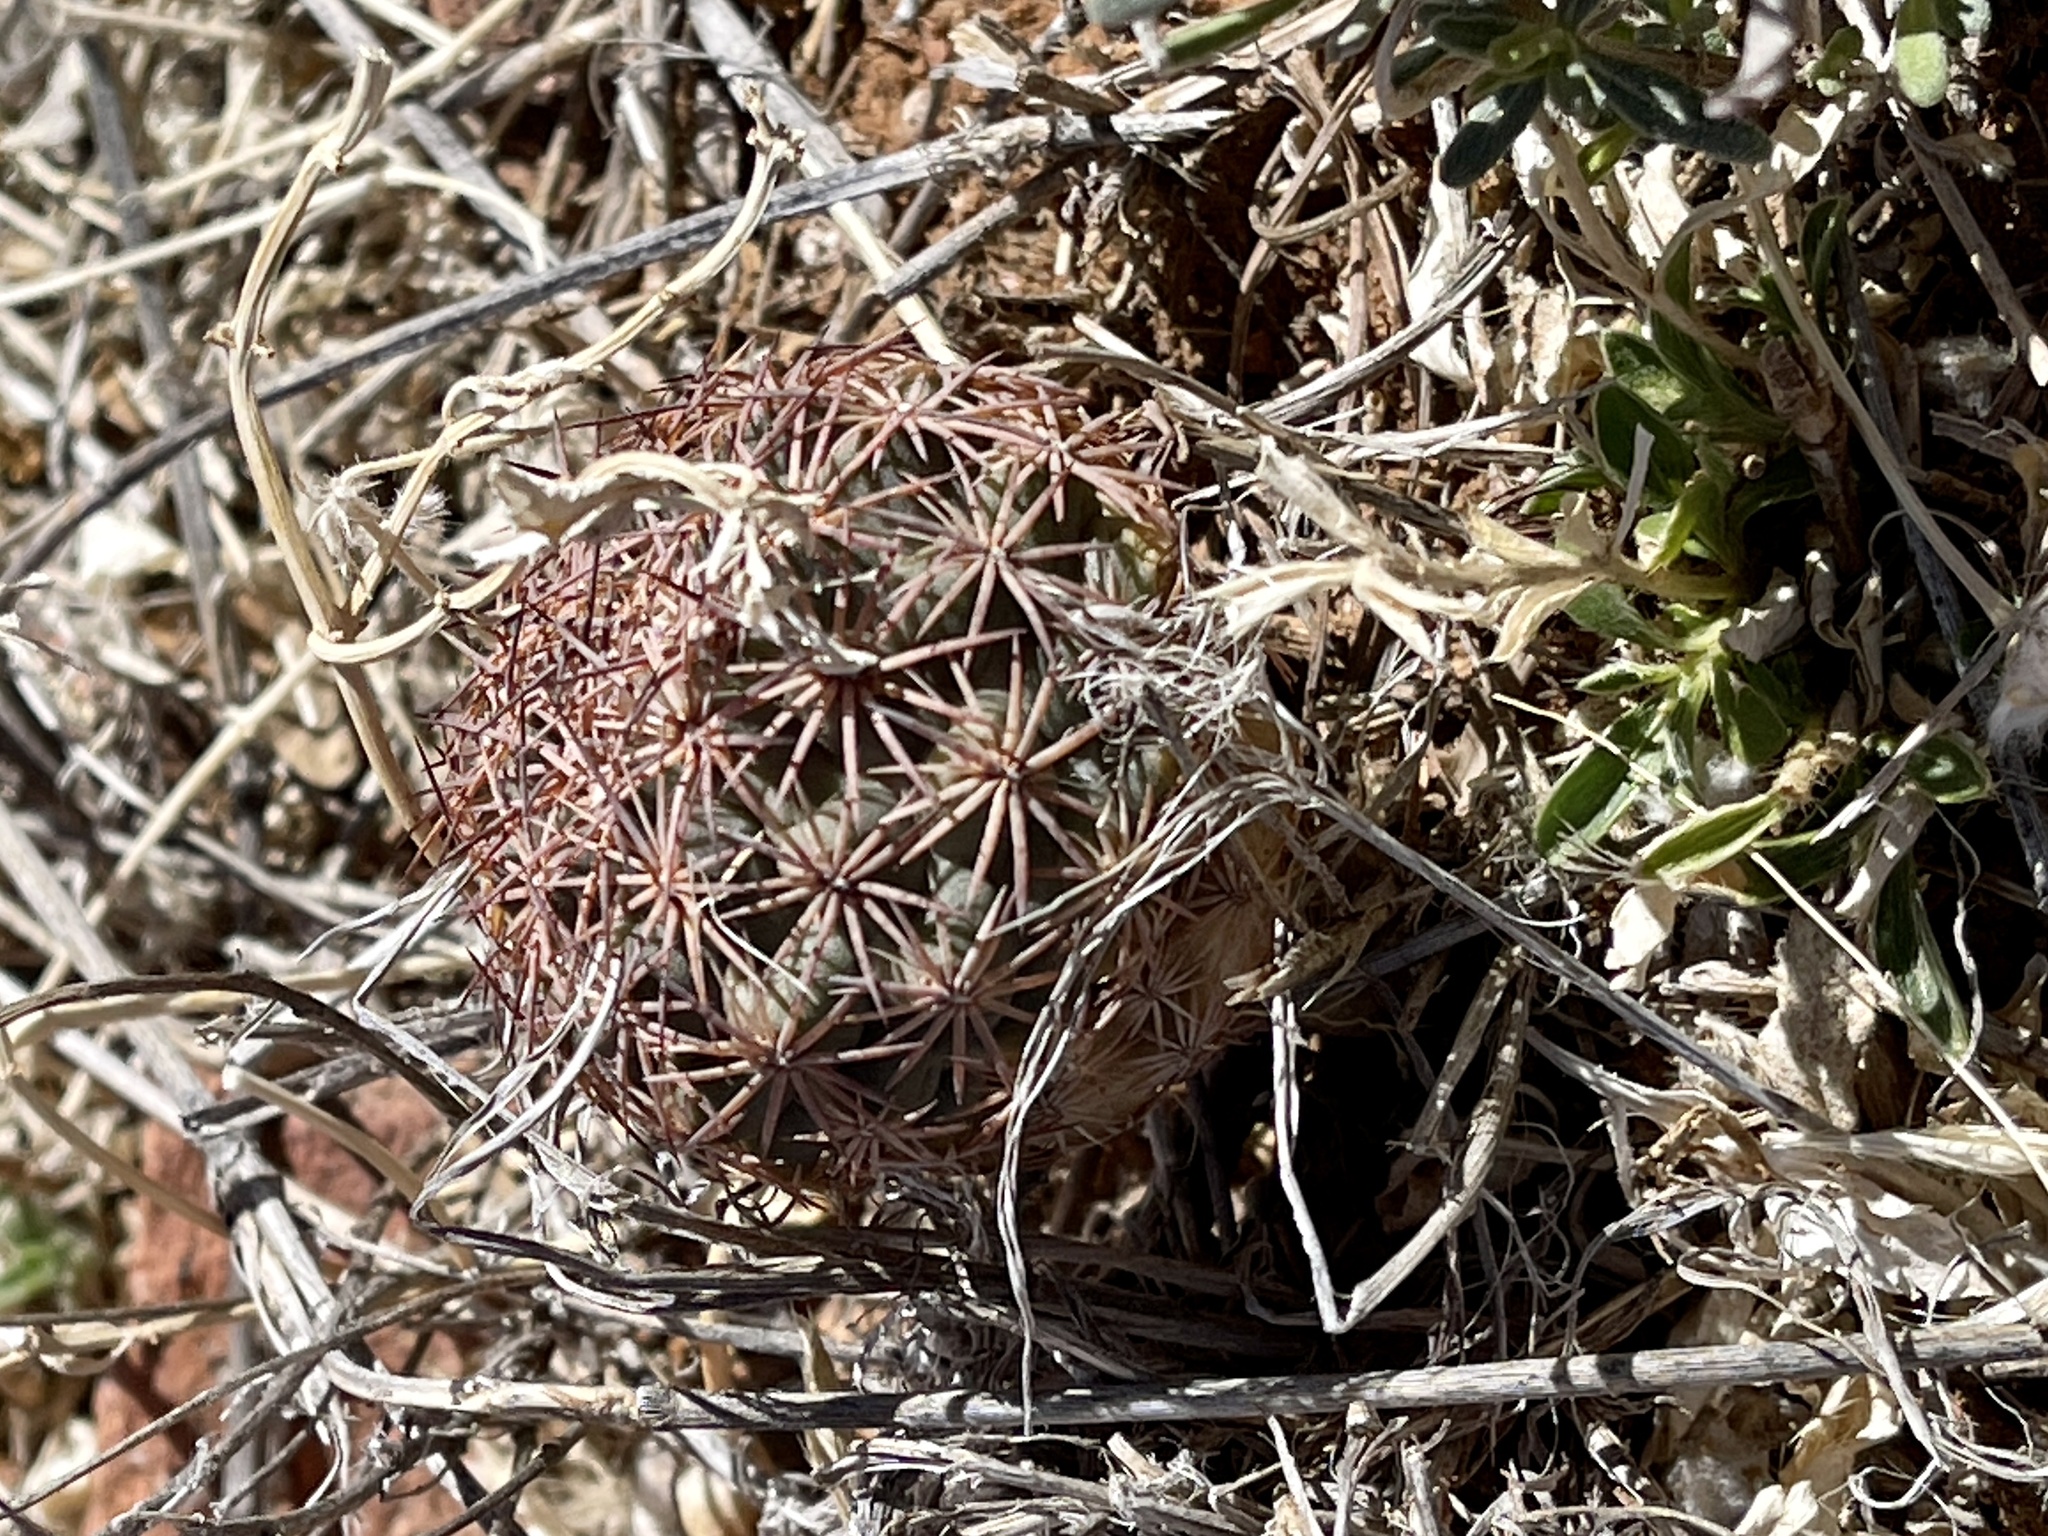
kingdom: Plantae
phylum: Tracheophyta
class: Magnoliopsida
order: Caryophyllales
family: Cactaceae
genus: Sclerocactus
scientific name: Sclerocactus intertextus
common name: White fish-hook cactus
